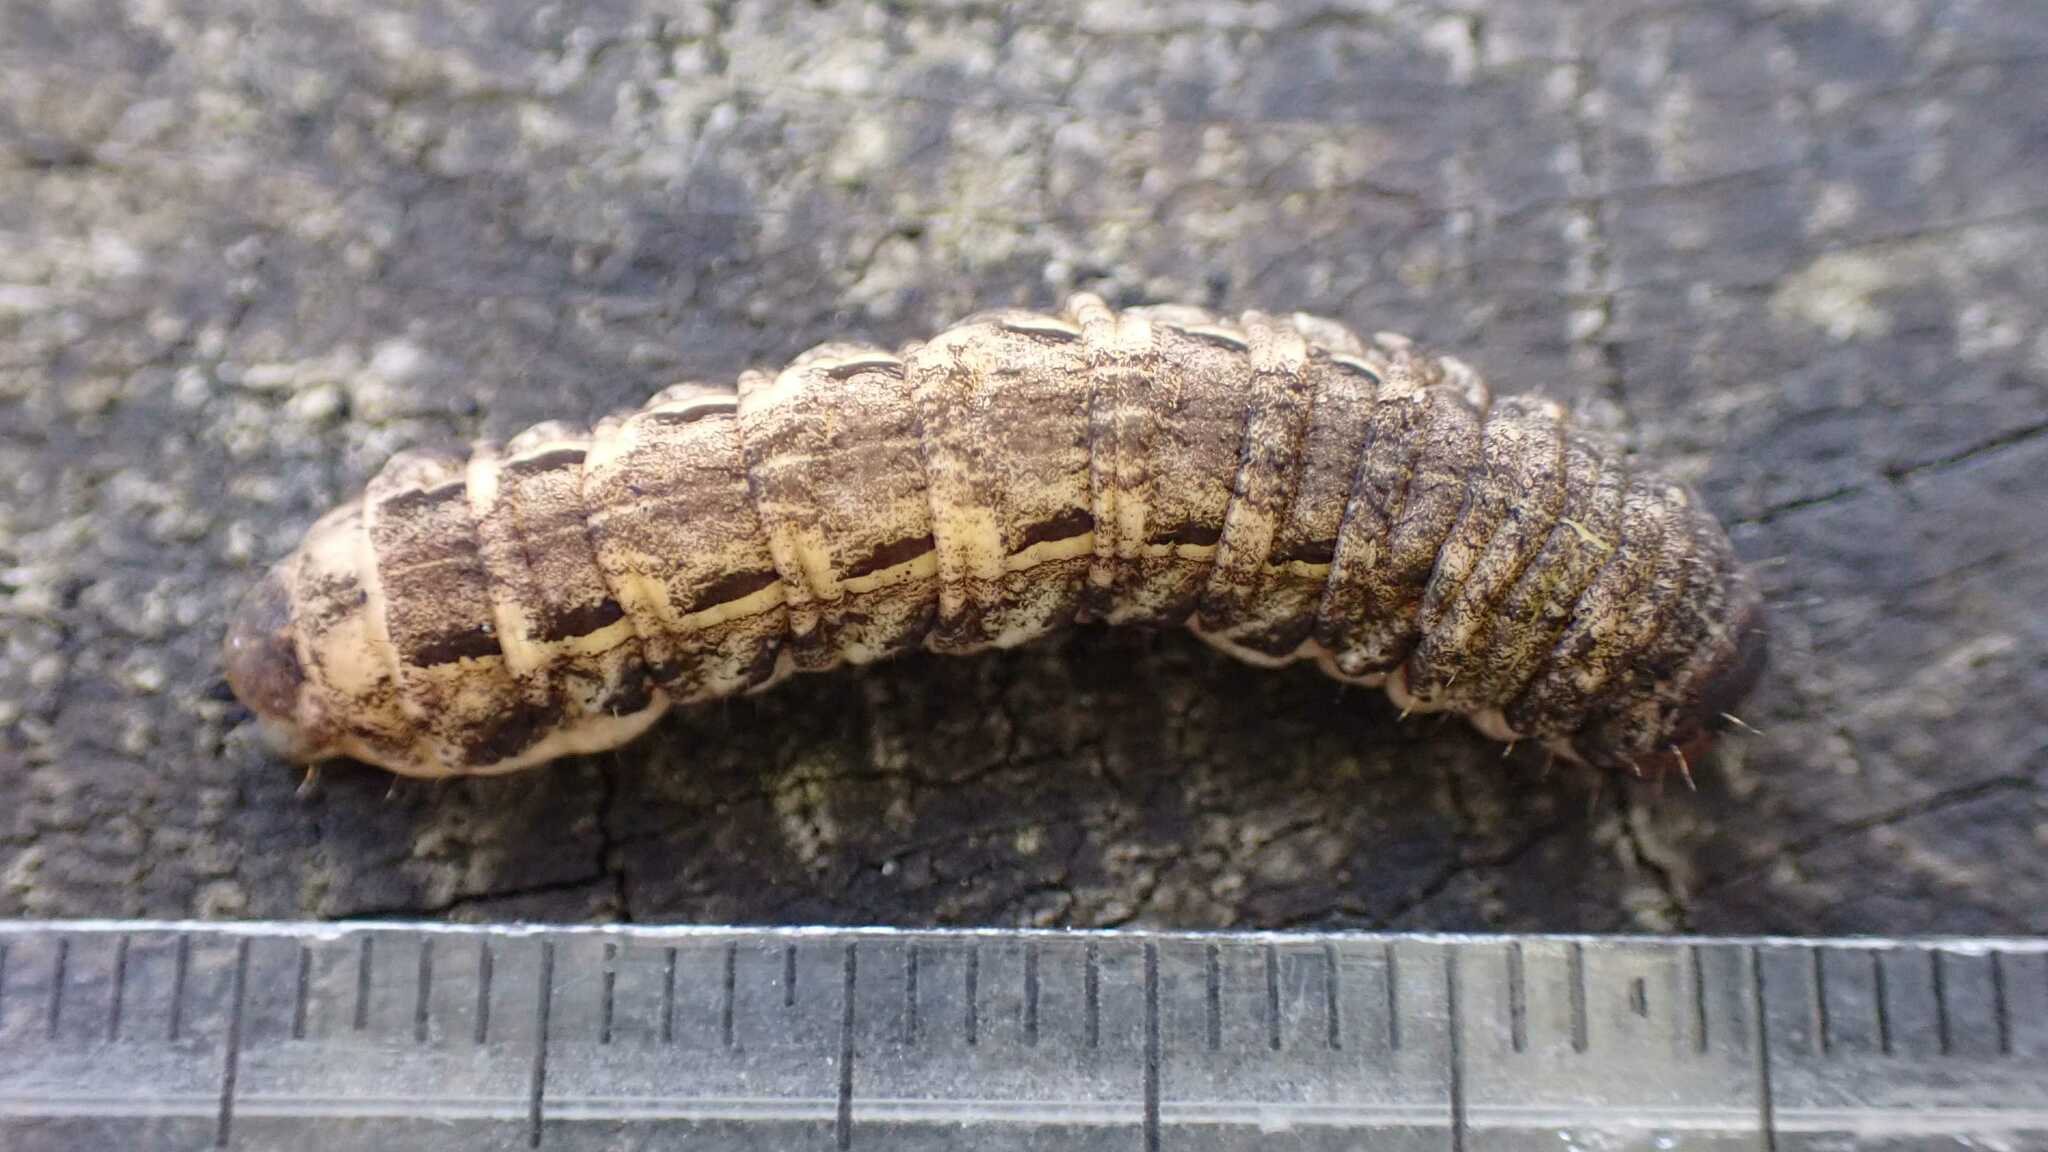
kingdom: Animalia
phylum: Arthropoda
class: Insecta
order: Lepidoptera
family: Noctuidae
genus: Noctua
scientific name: Noctua pronuba
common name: Large yellow underwing
